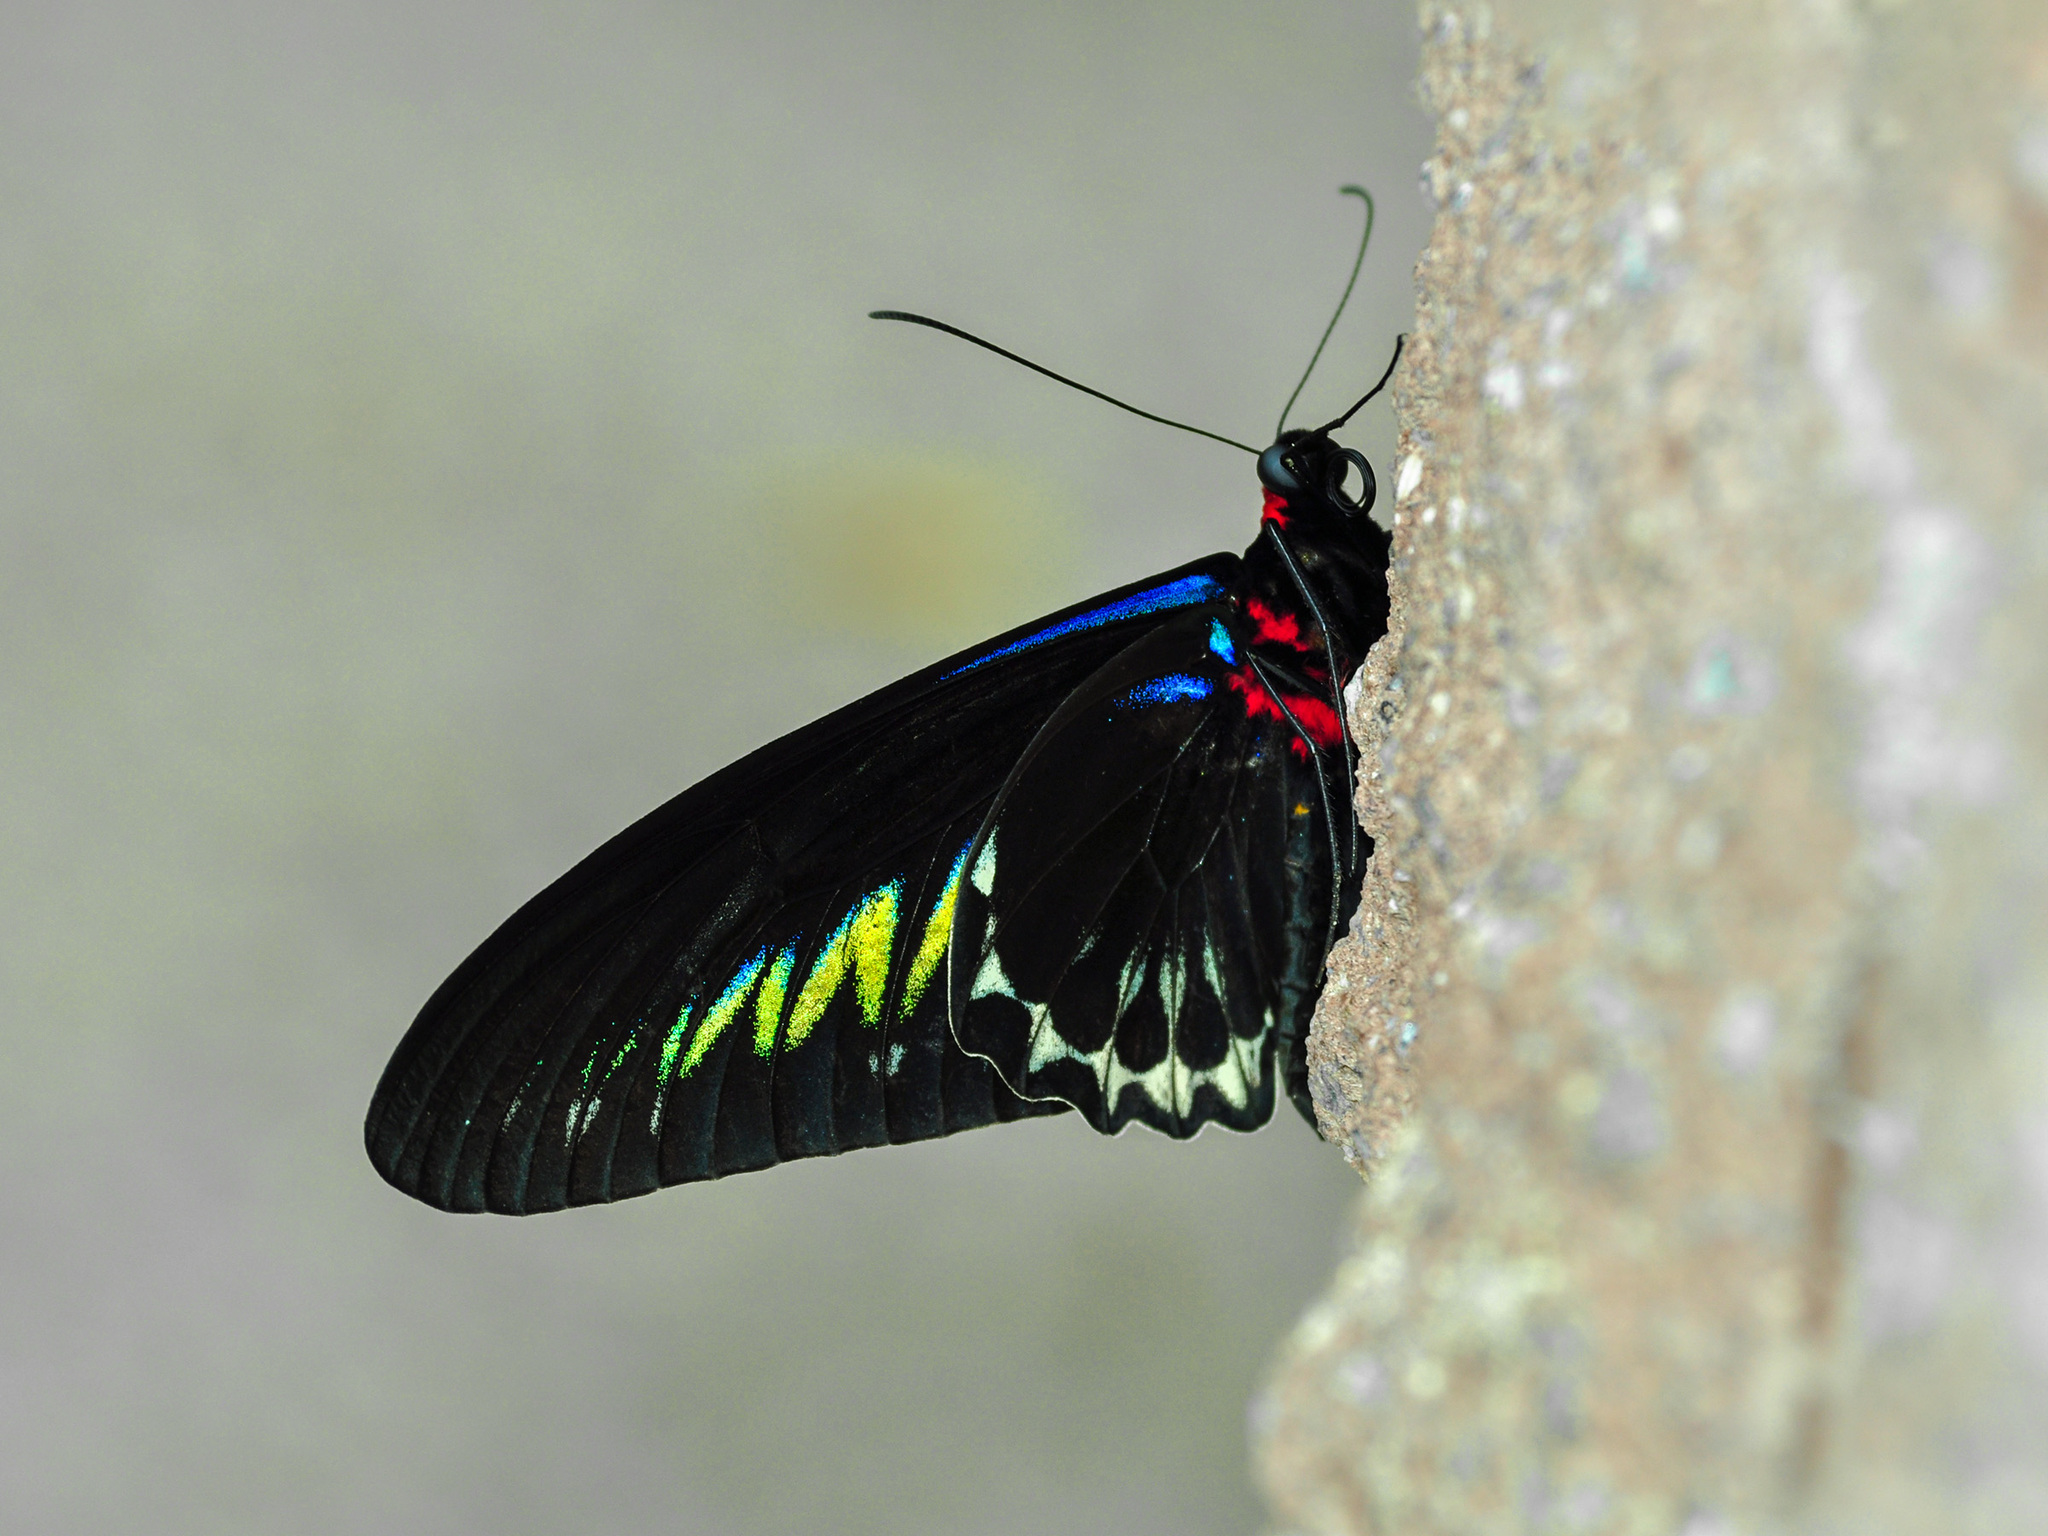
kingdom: Animalia
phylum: Arthropoda
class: Insecta
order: Lepidoptera
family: Papilionidae
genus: Trogonoptera
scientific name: Trogonoptera brookiana
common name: Raja brooke's birdwing
